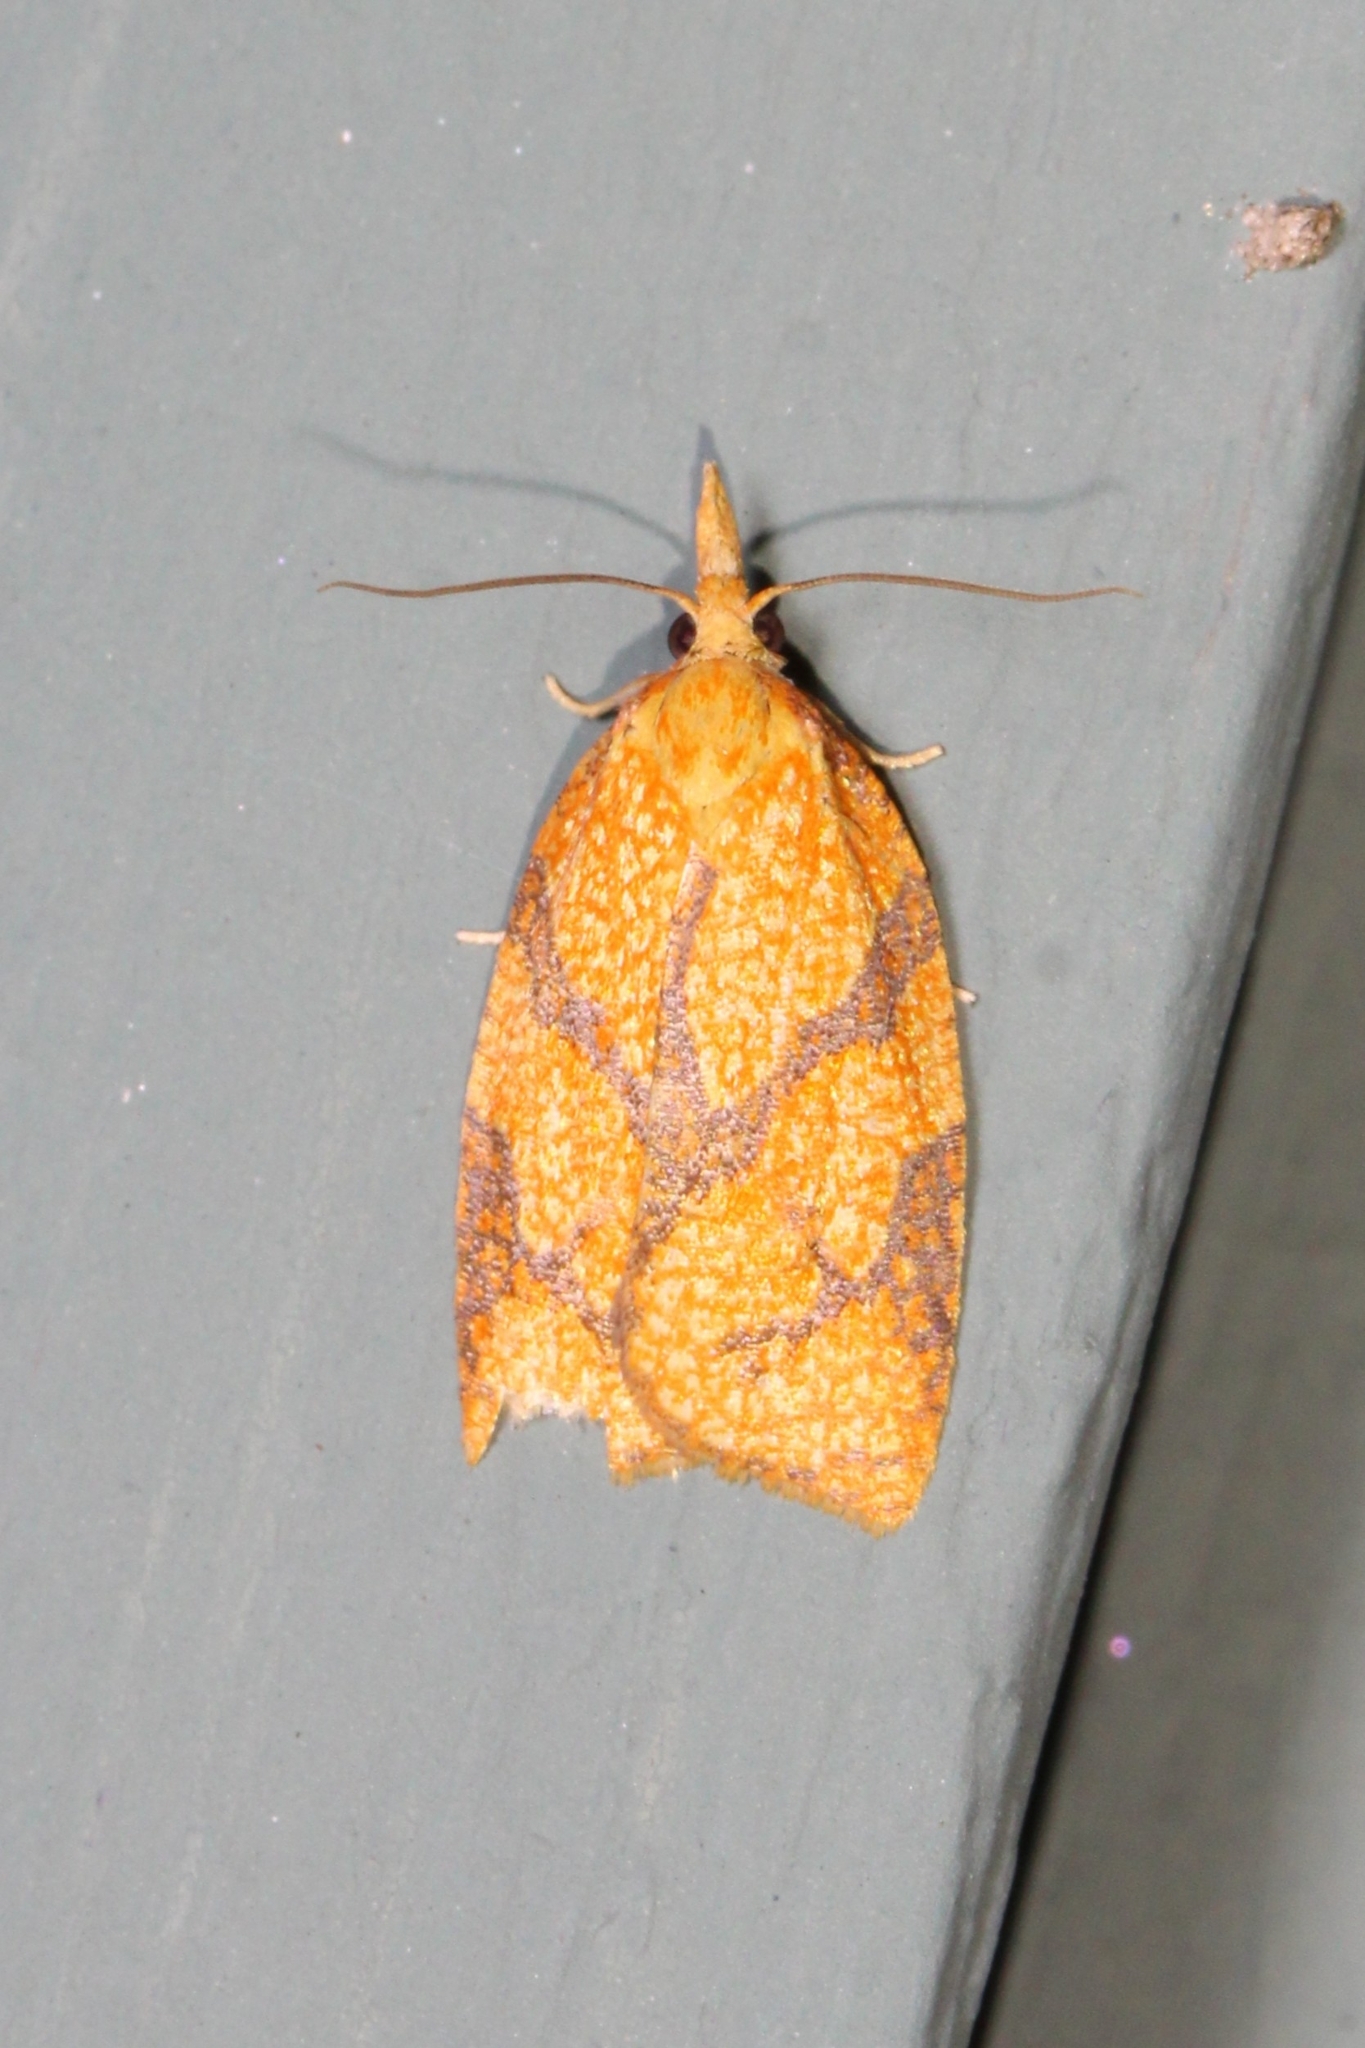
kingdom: Animalia
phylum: Arthropoda
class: Insecta
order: Lepidoptera
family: Tortricidae
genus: Cenopis
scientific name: Cenopis reticulatana
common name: Reticulated fruitworm moth
